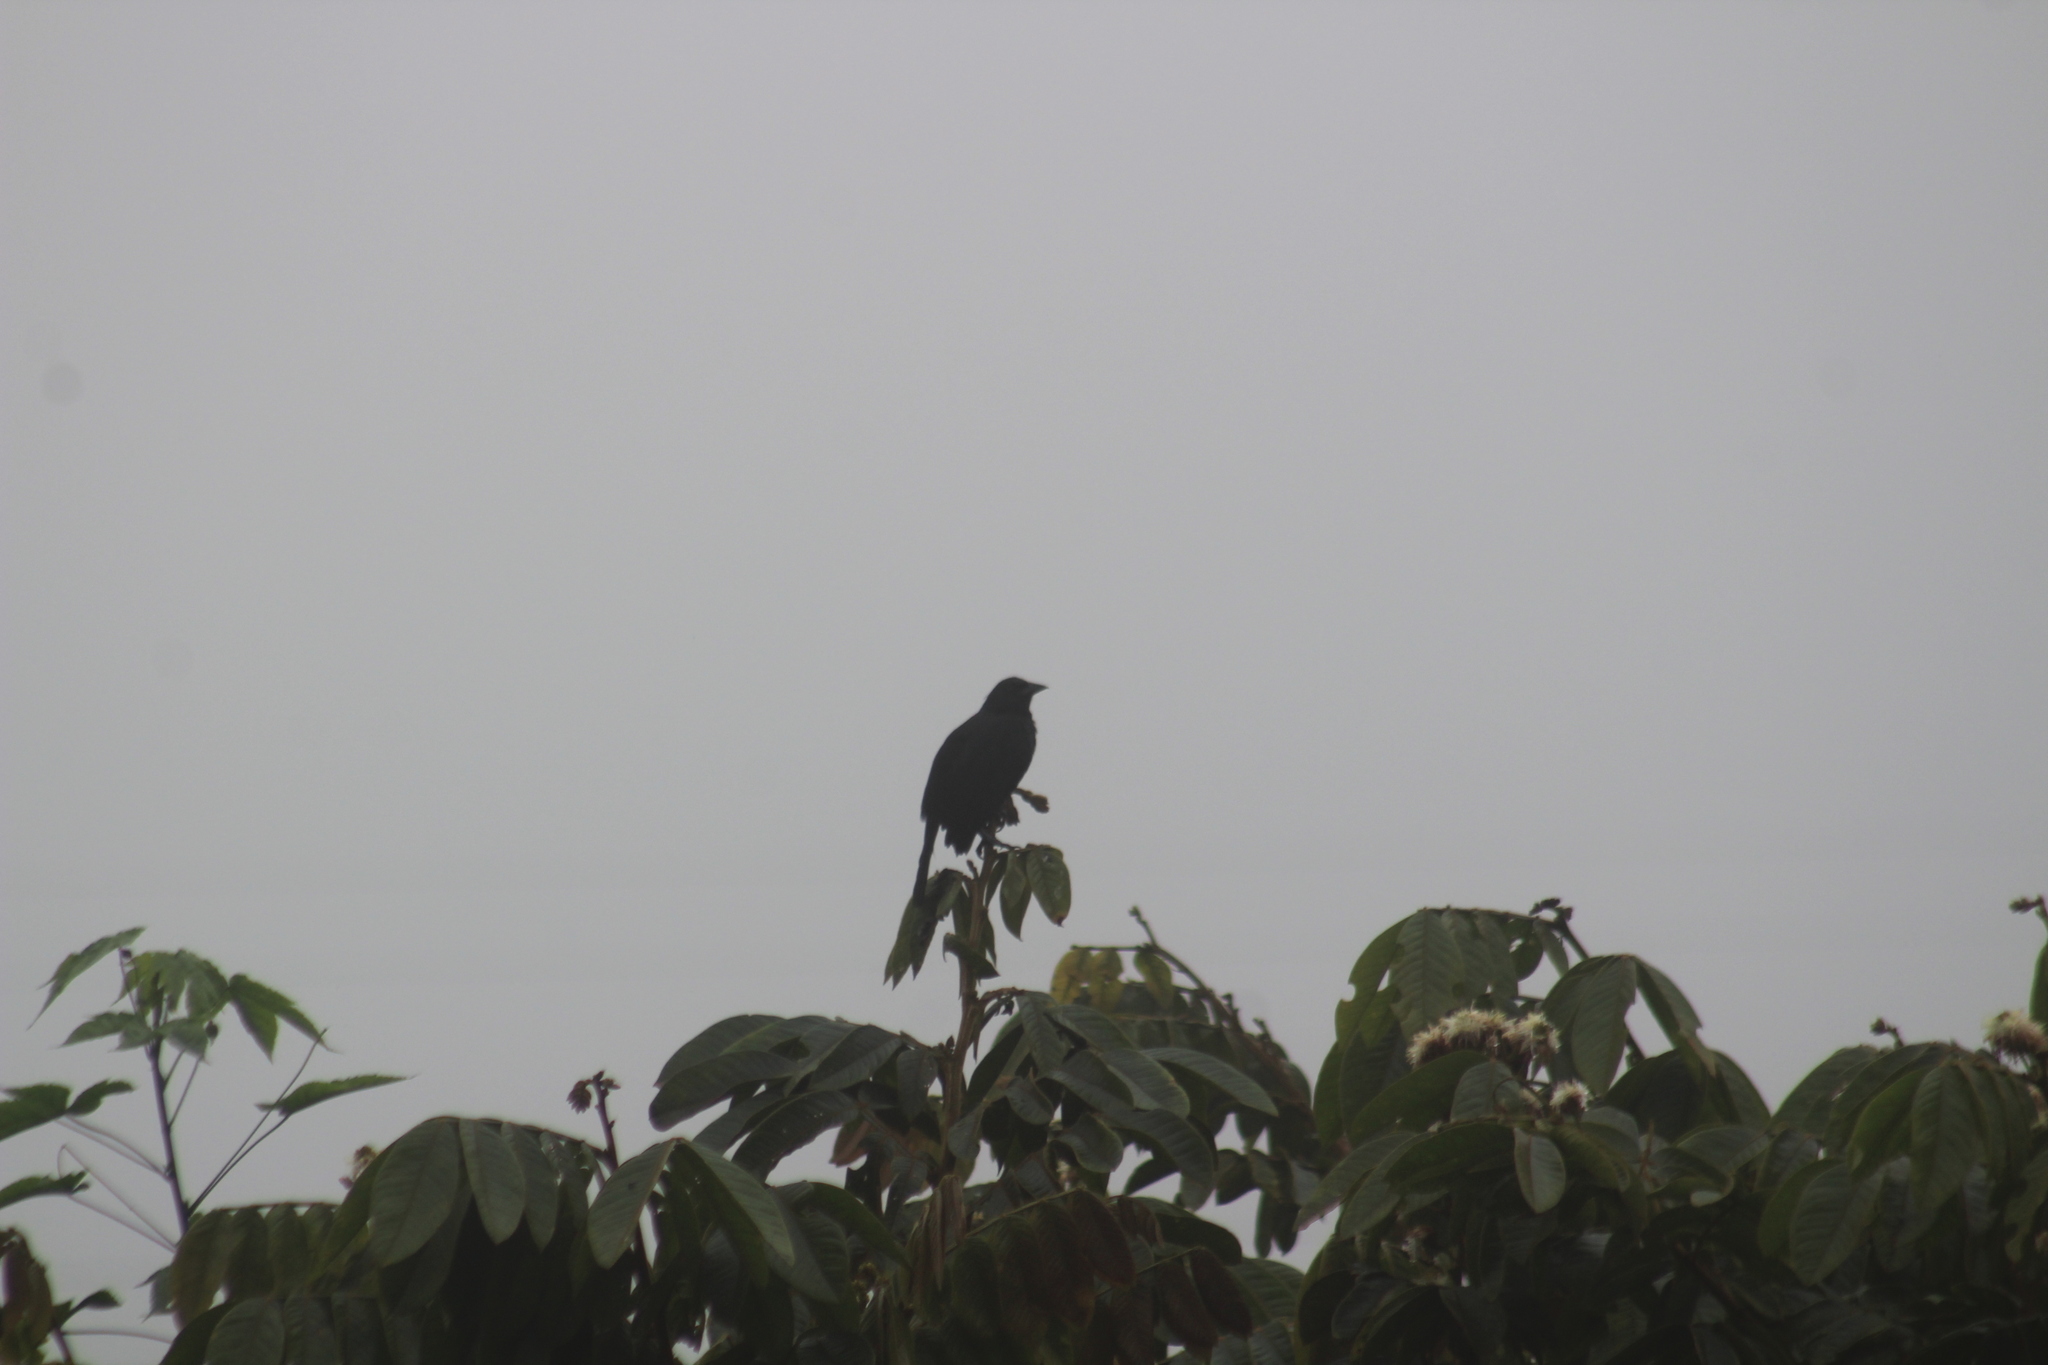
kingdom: Animalia
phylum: Chordata
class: Aves
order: Passeriformes
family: Icteridae
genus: Dives
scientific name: Dives warczewiczi
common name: Scrub blackbird
